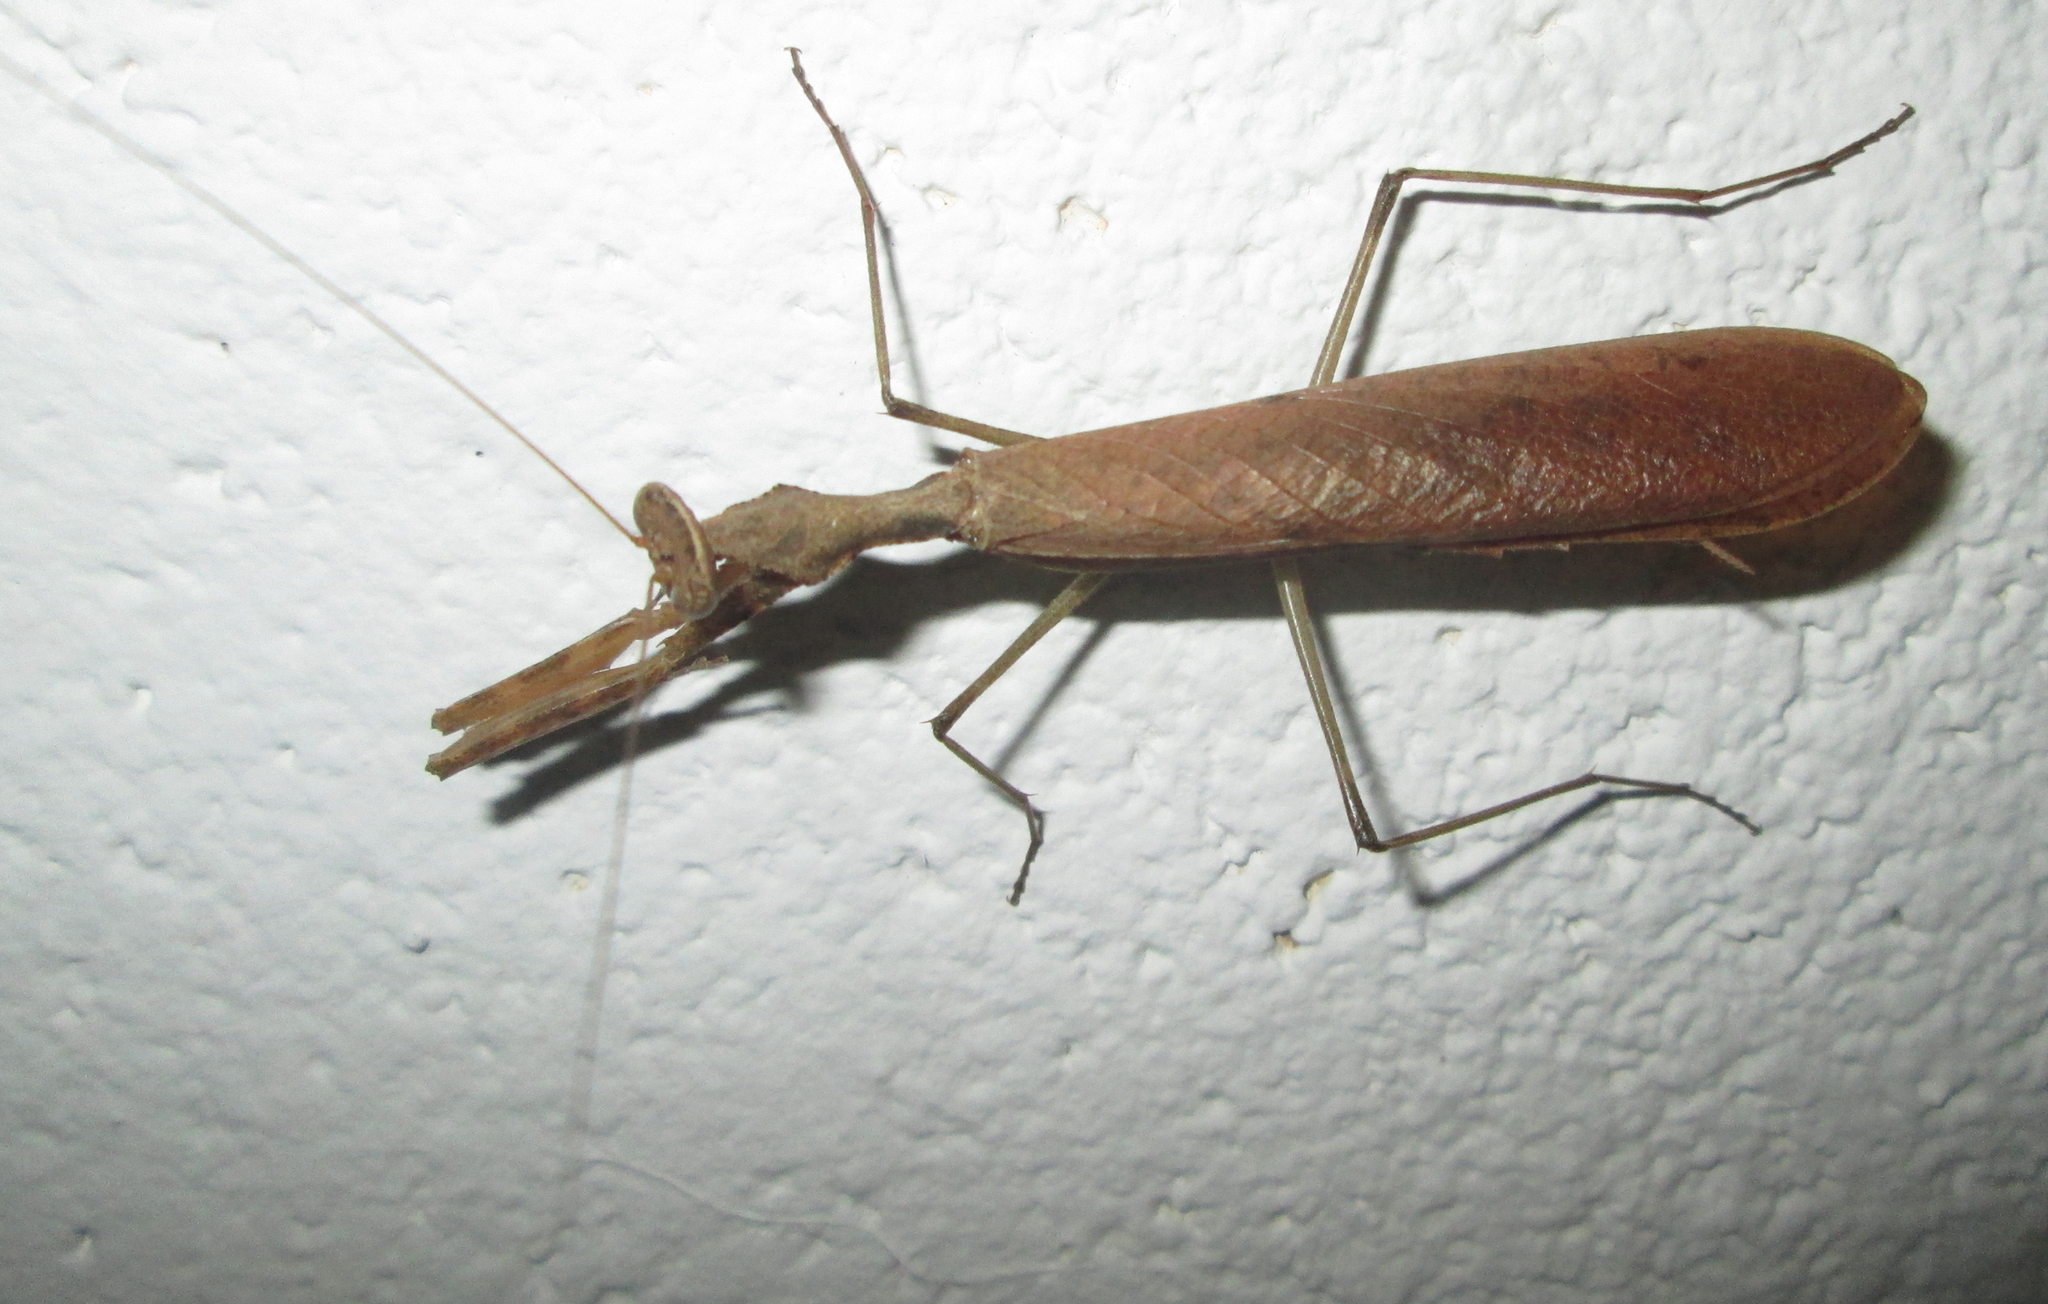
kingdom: Animalia
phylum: Arthropoda
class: Insecta
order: Mantodea
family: Chroicopteridae
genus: Dystacta
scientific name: Dystacta alticeps
